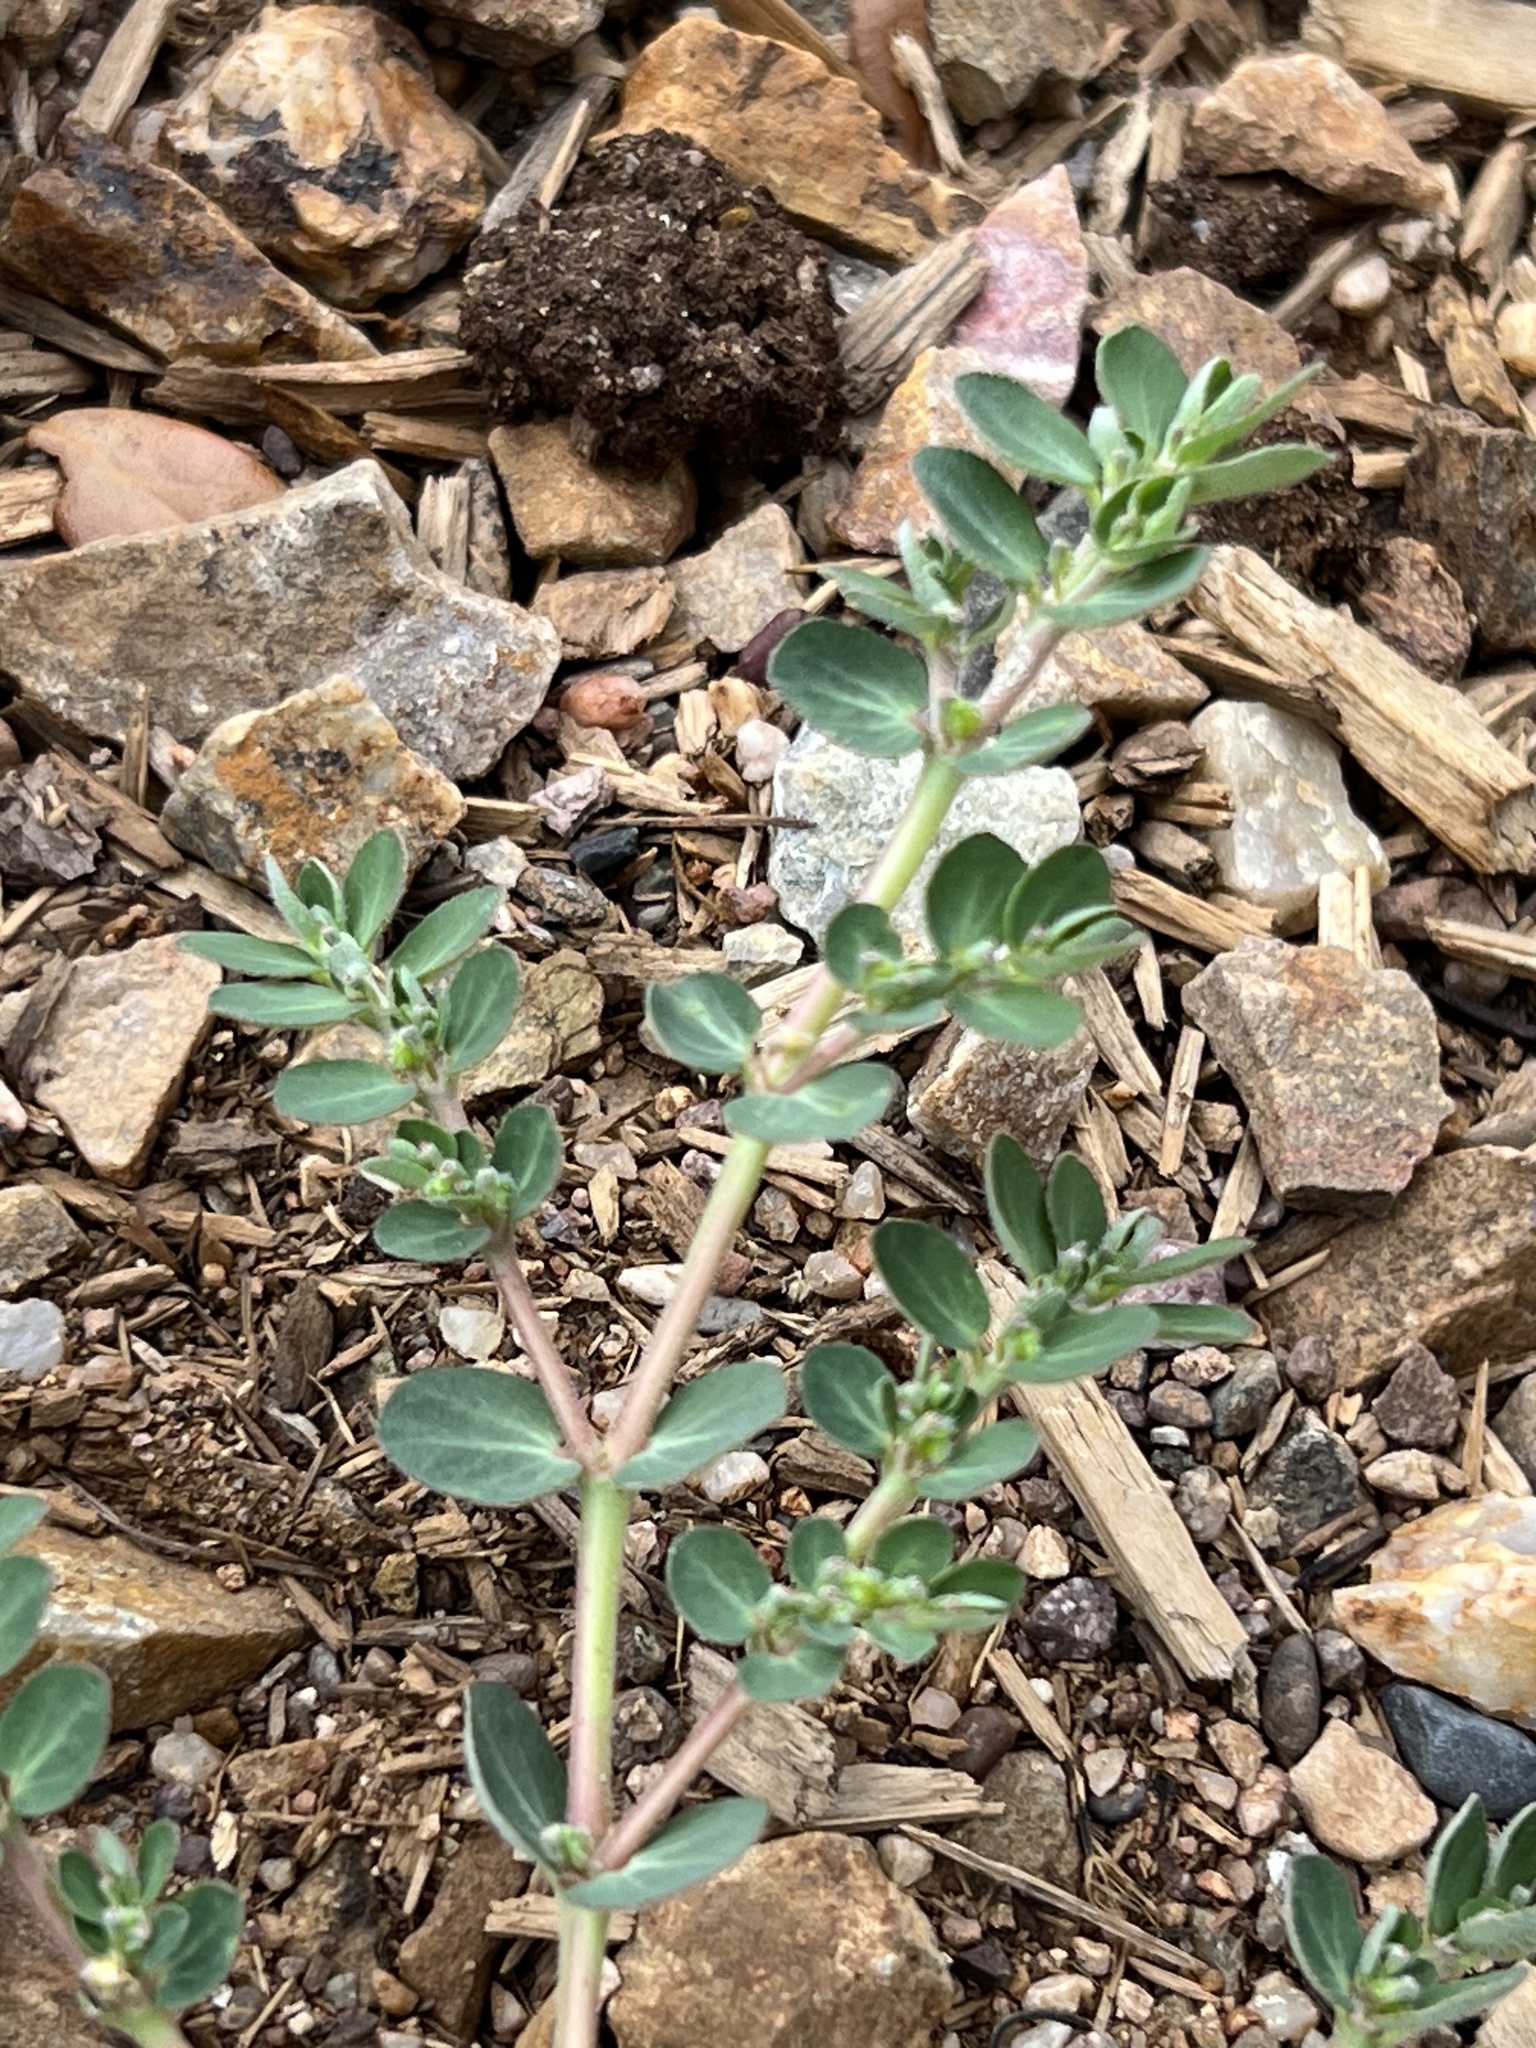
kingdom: Plantae
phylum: Tracheophyta
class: Magnoliopsida
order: Malpighiales
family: Euphorbiaceae
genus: Euphorbia
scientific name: Euphorbia prostrata
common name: Prostrate sandmat
